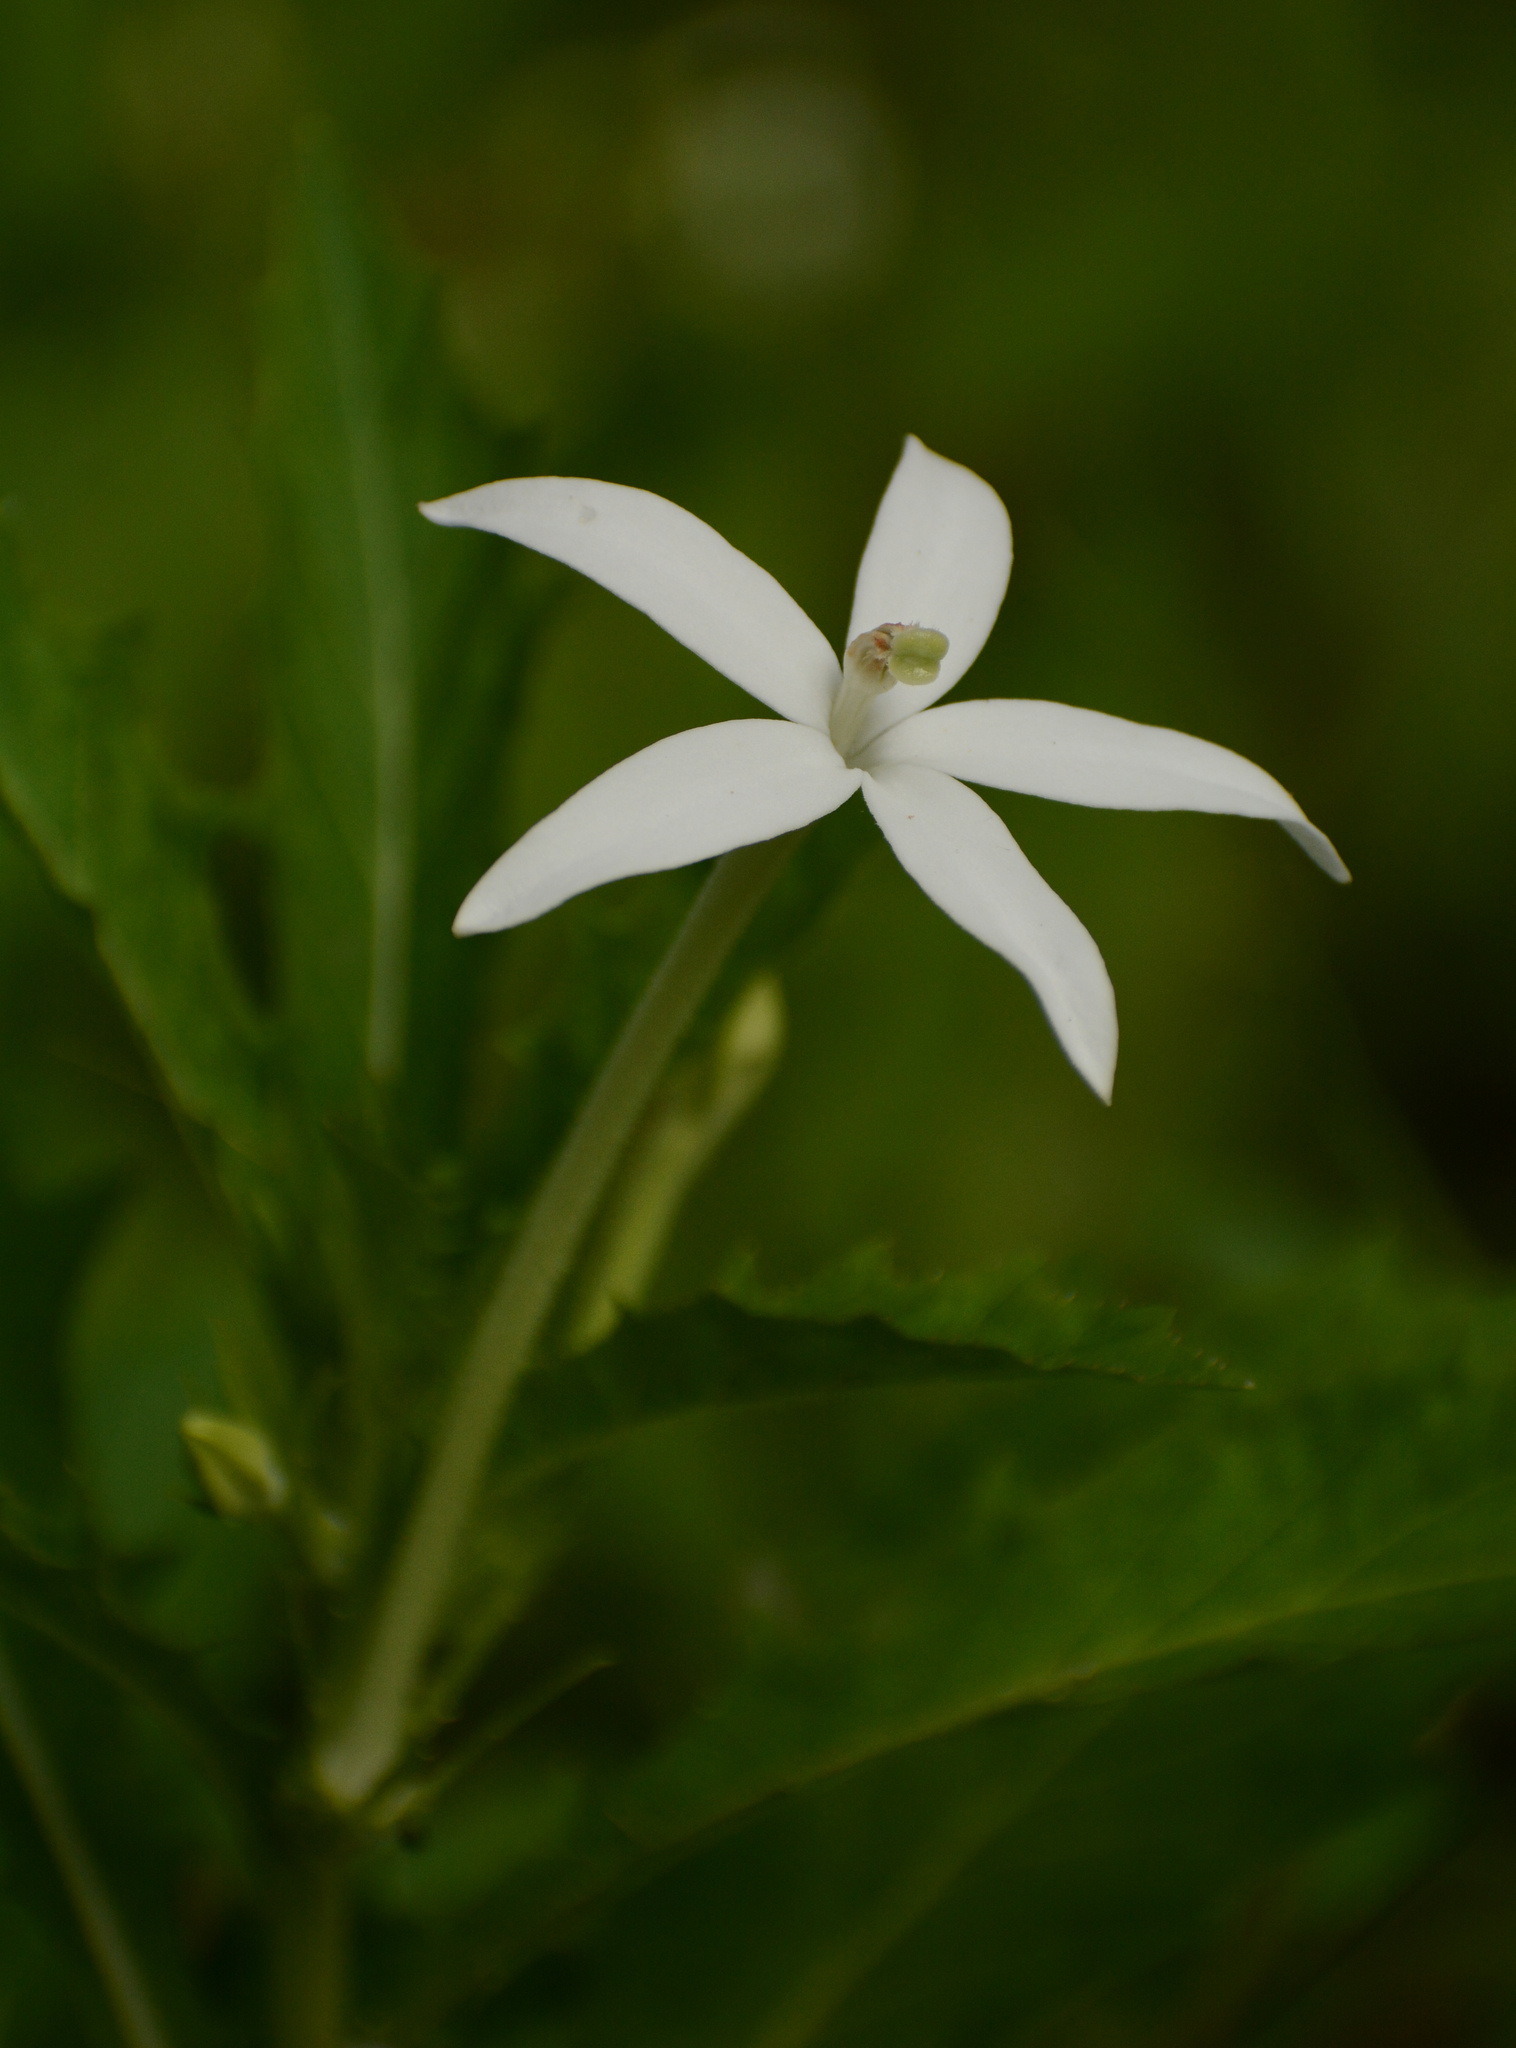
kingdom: Plantae
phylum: Tracheophyta
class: Magnoliopsida
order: Asterales
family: Campanulaceae
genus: Hippobroma
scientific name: Hippobroma longiflora
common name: Madamfate
